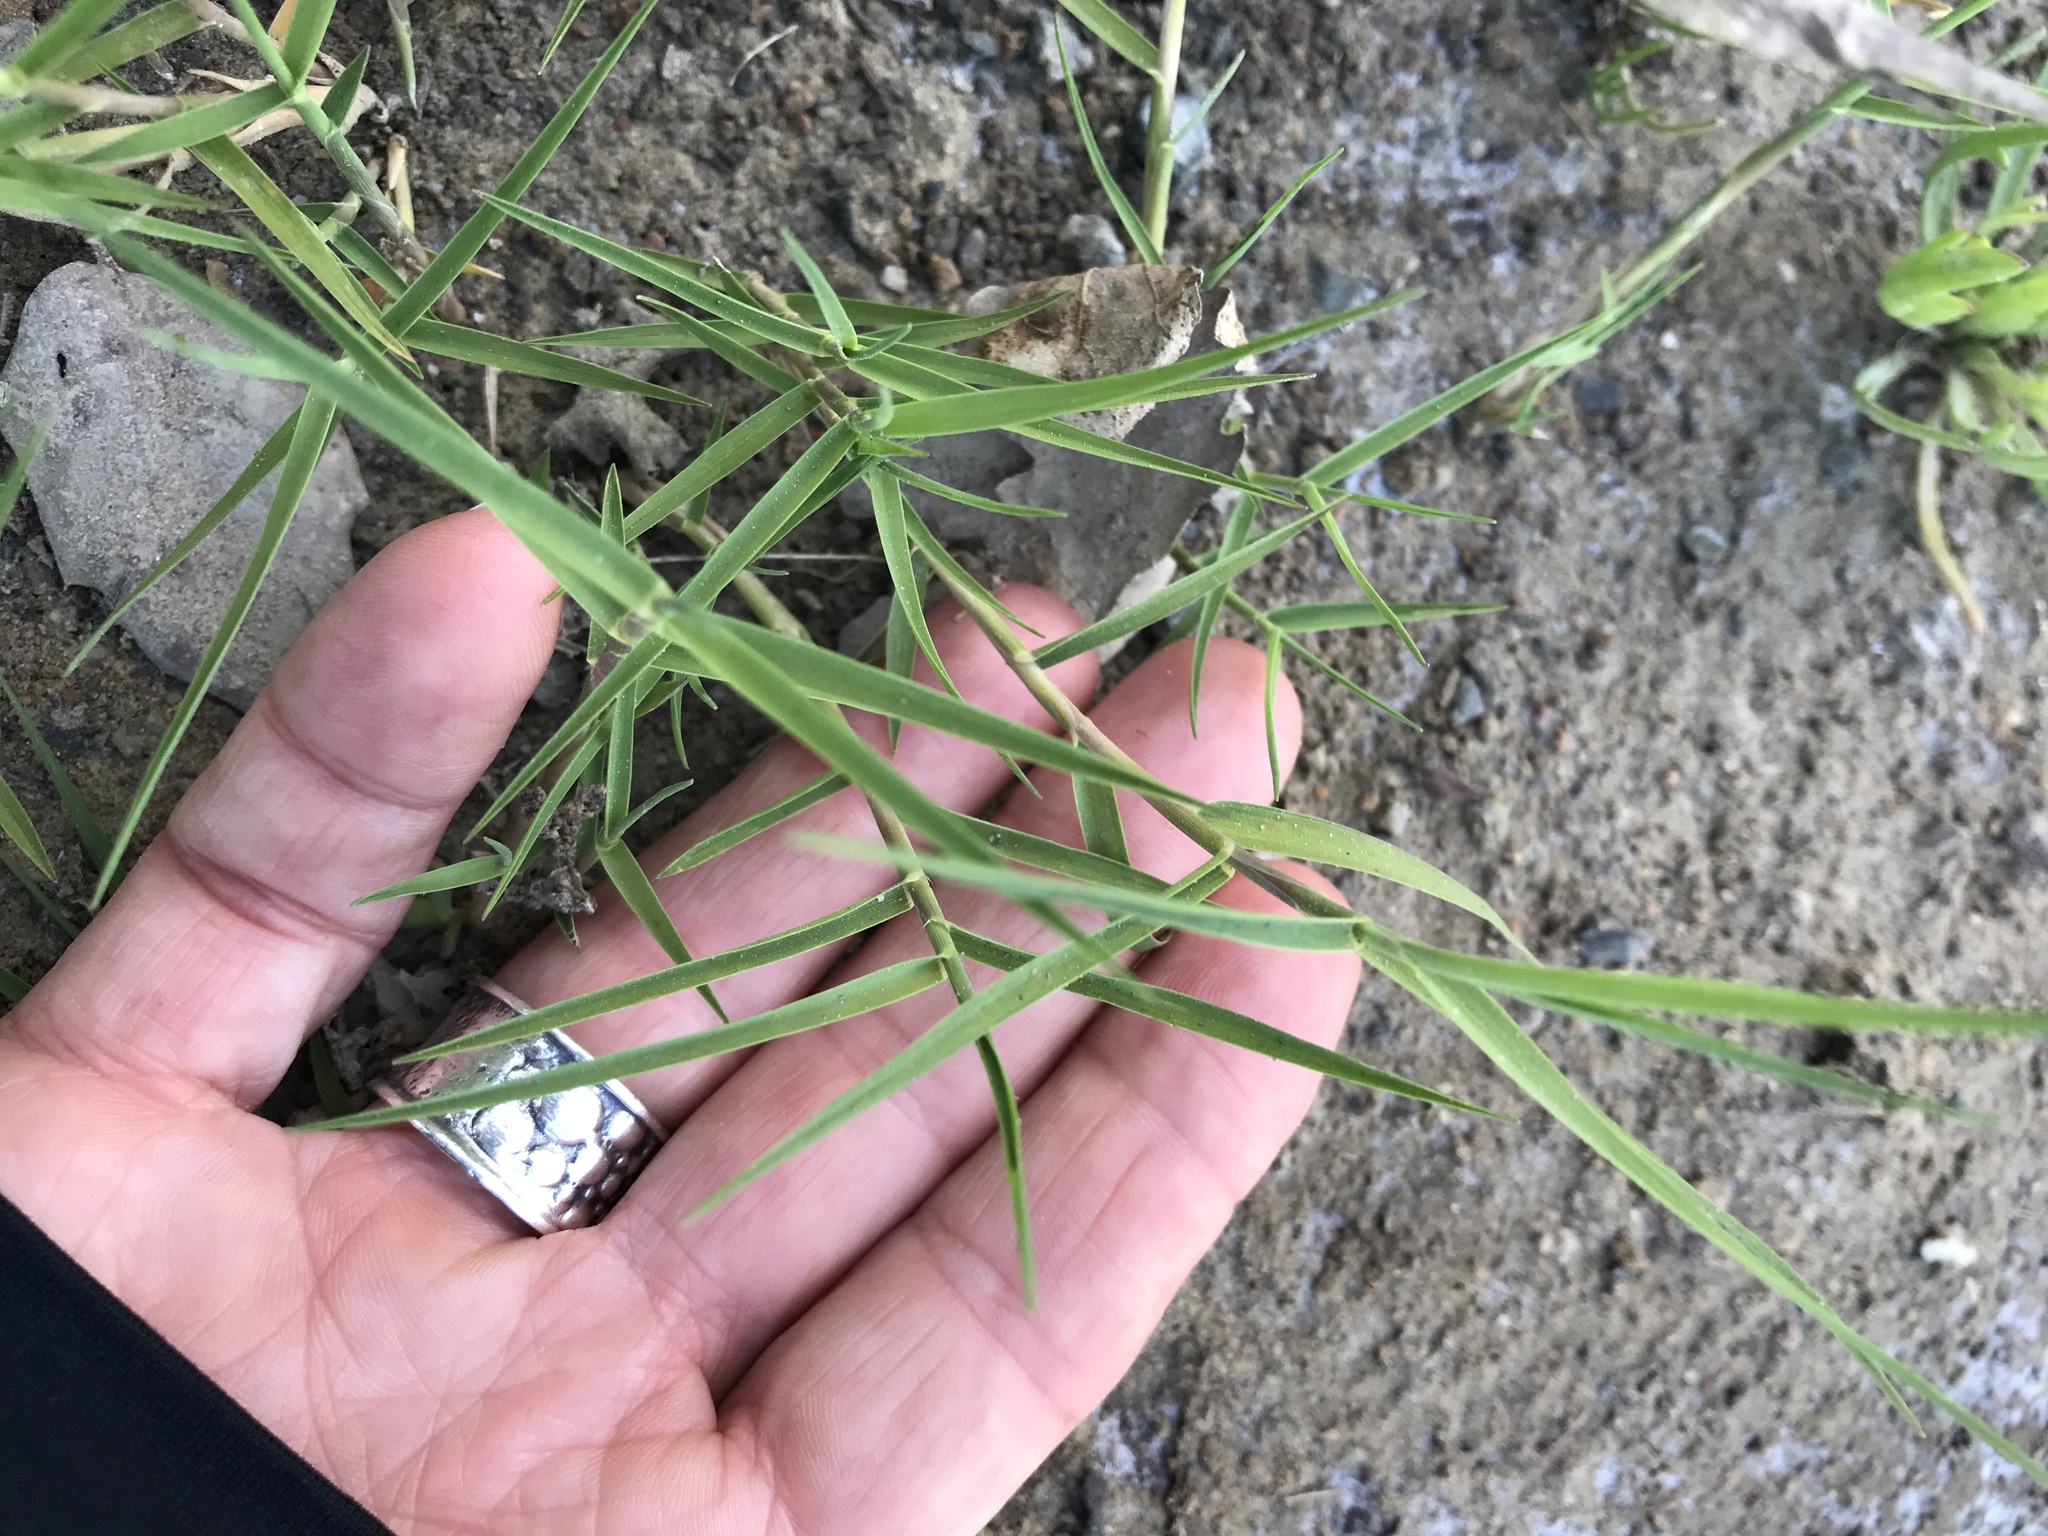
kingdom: Plantae
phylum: Tracheophyta
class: Liliopsida
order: Poales
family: Poaceae
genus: Distichlis
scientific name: Distichlis spicata
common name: Saltgrass
